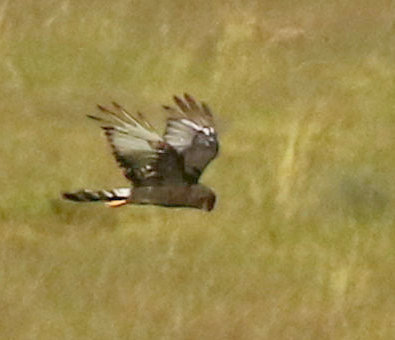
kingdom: Animalia
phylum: Chordata
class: Aves
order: Accipitriformes
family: Accipitridae
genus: Circus
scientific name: Circus maurus
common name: Black harrier
